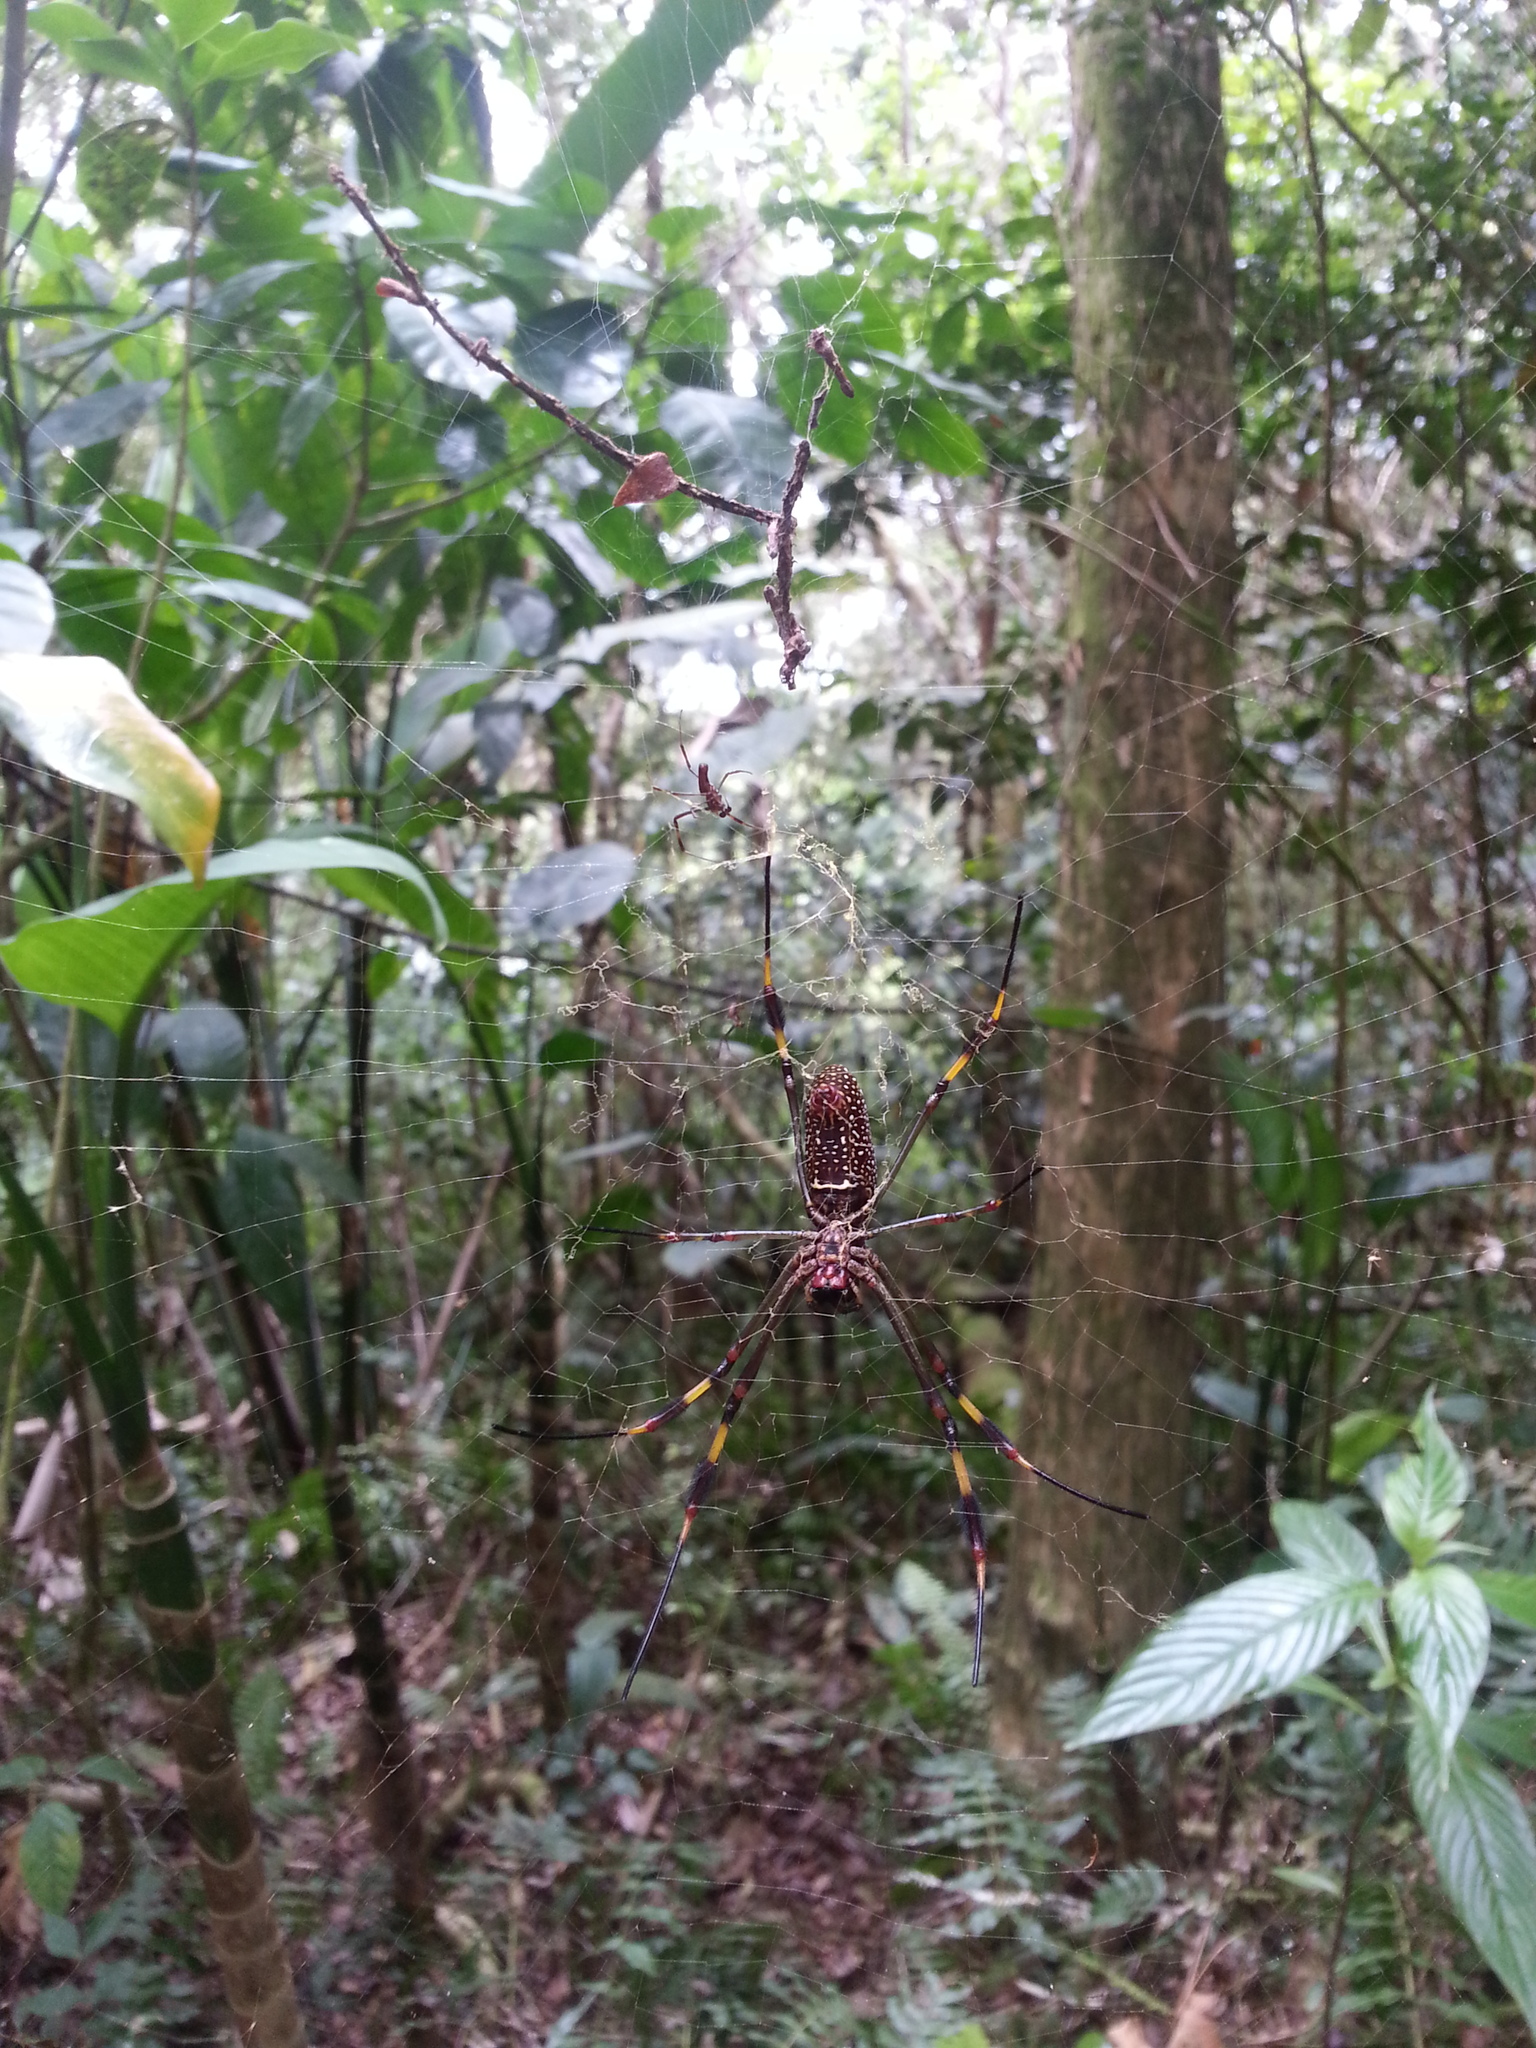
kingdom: Animalia
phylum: Arthropoda
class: Arachnida
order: Araneae
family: Araneidae
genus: Trichonephila
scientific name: Trichonephila clavipes
